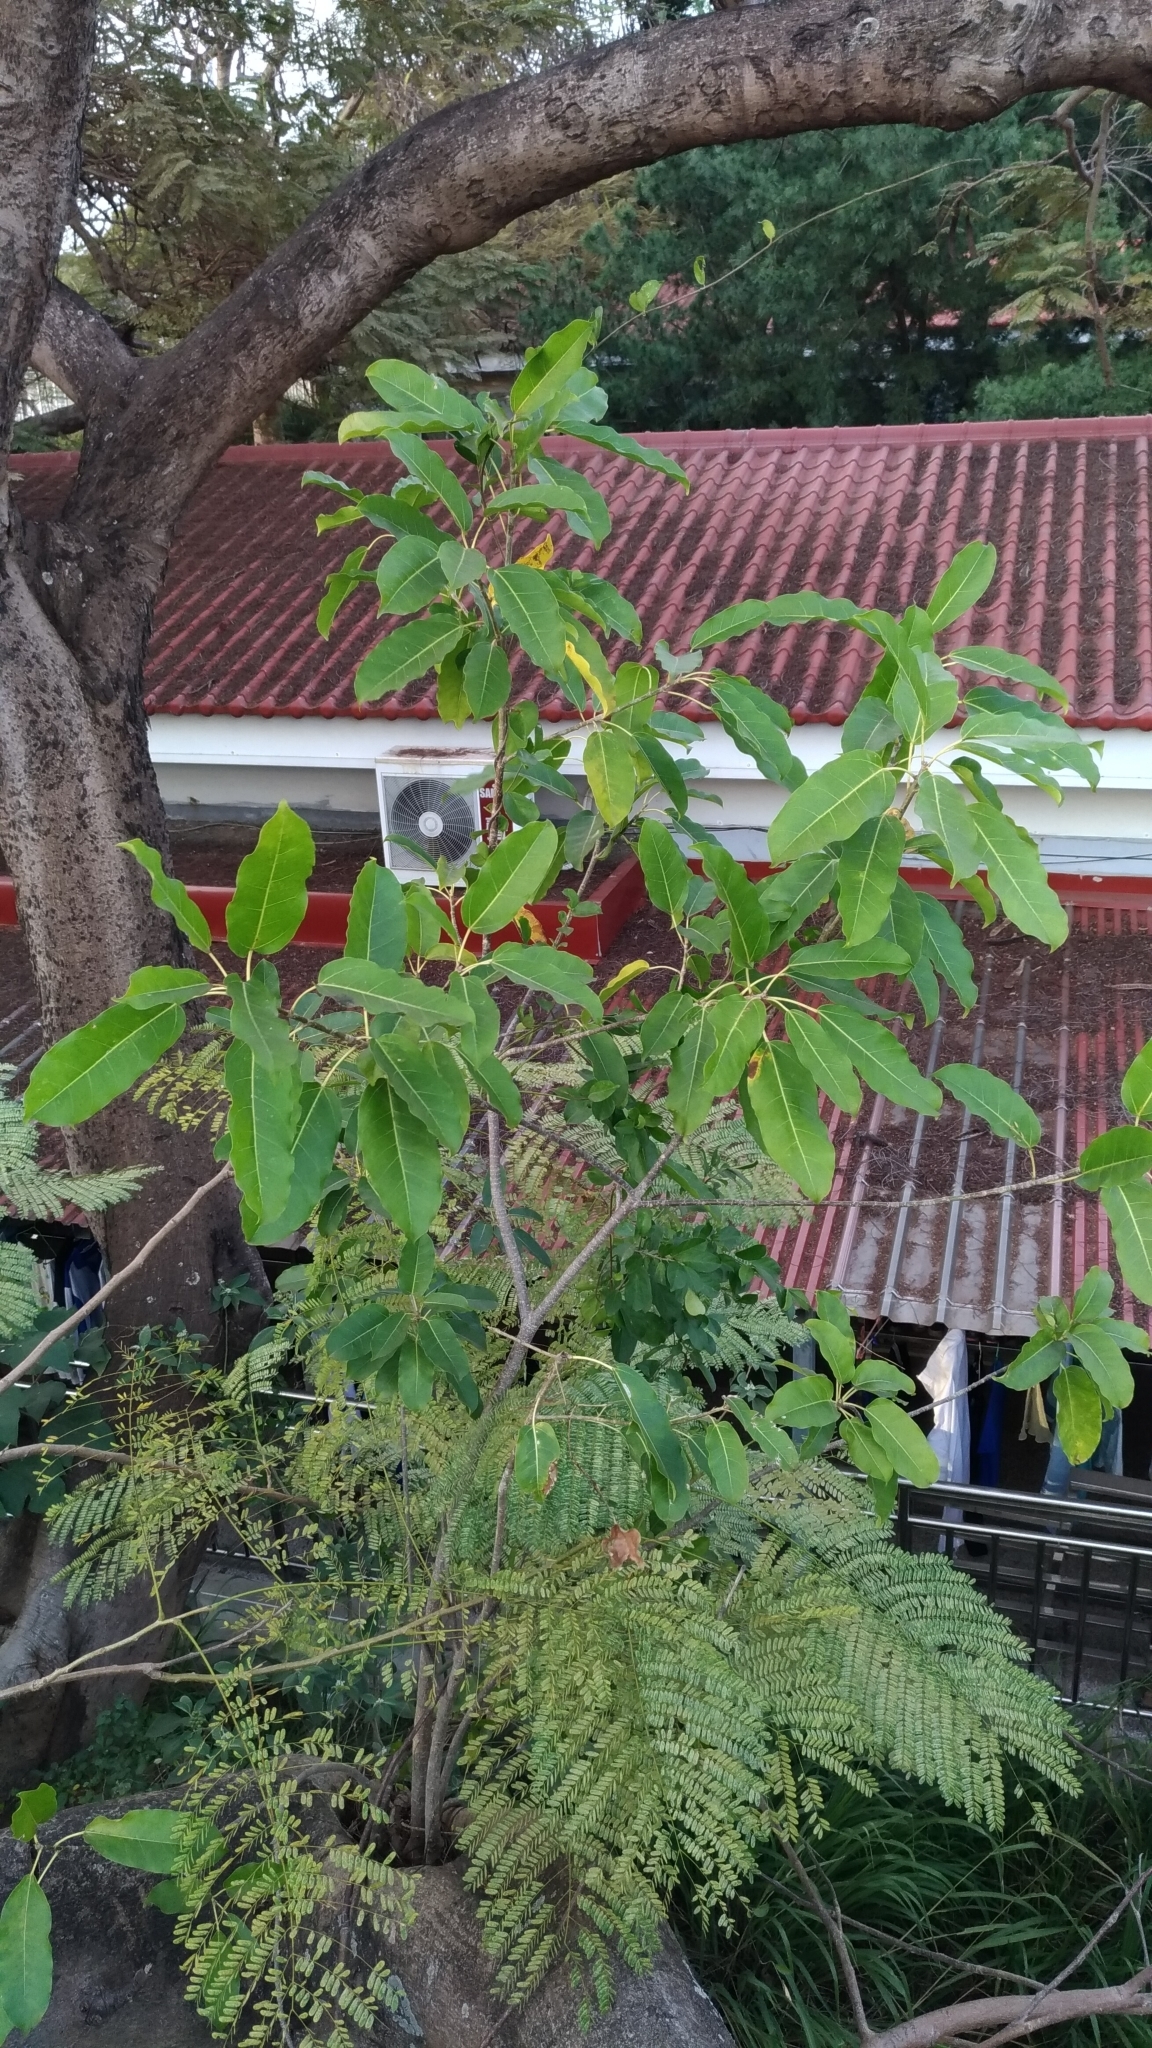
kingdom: Plantae
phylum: Tracheophyta
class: Magnoliopsida
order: Rosales
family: Moraceae
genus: Ficus
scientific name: Ficus subpisocarpa
